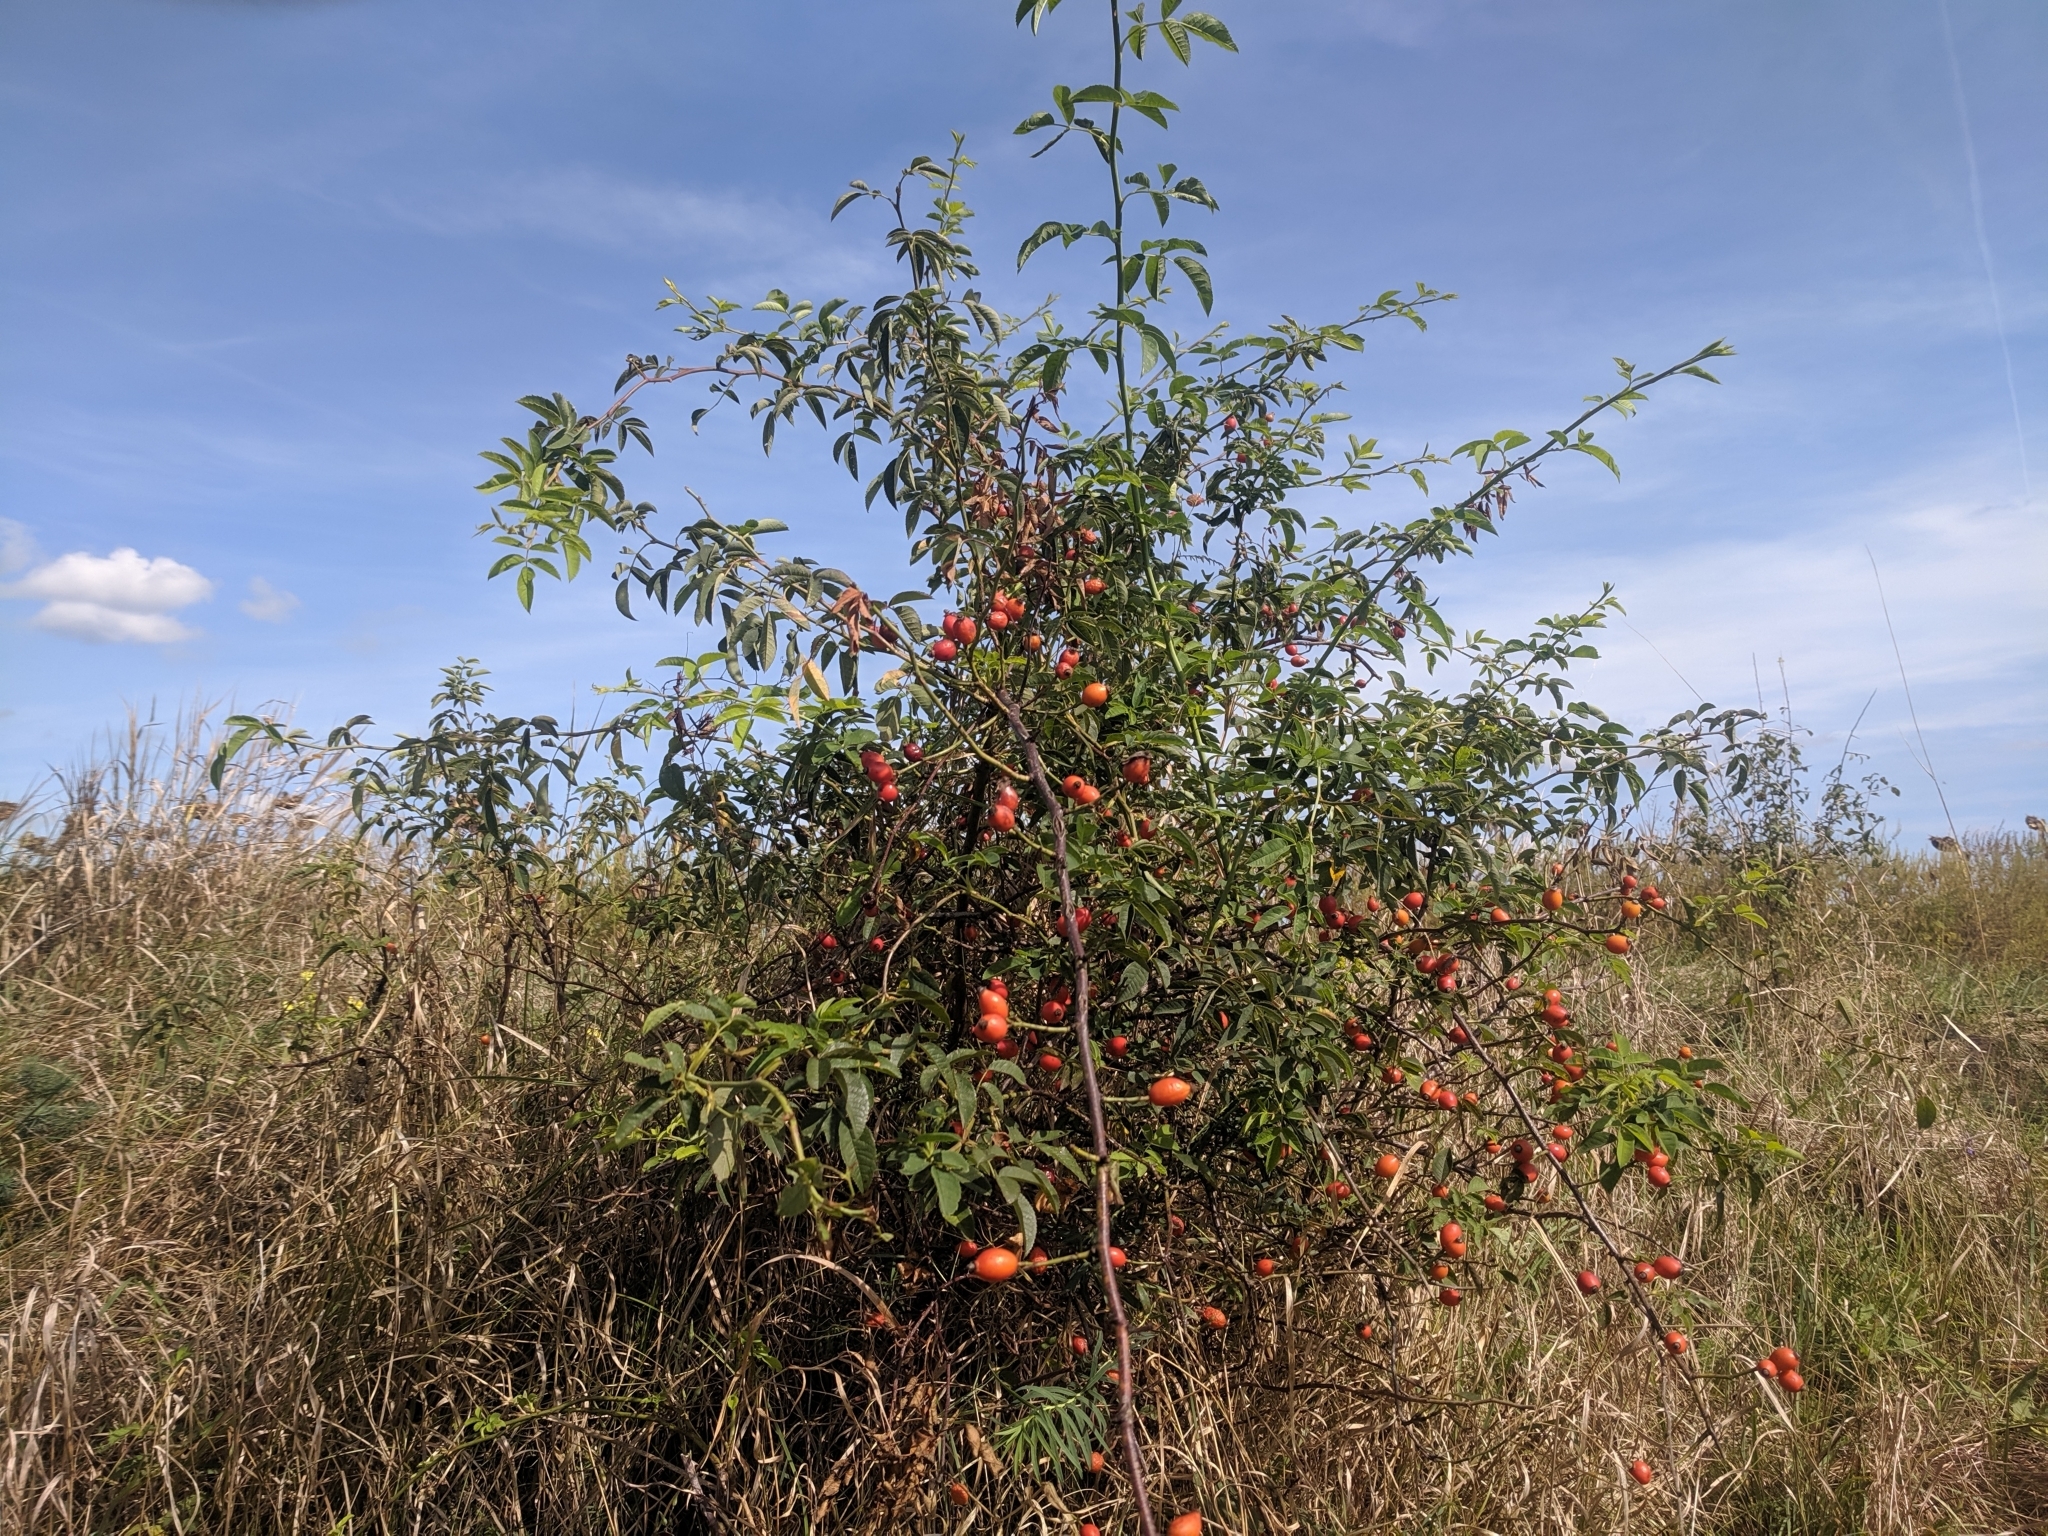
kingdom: Plantae
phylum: Tracheophyta
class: Magnoliopsida
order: Rosales
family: Rosaceae
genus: Rosa
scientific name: Rosa canina
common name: Dog rose
